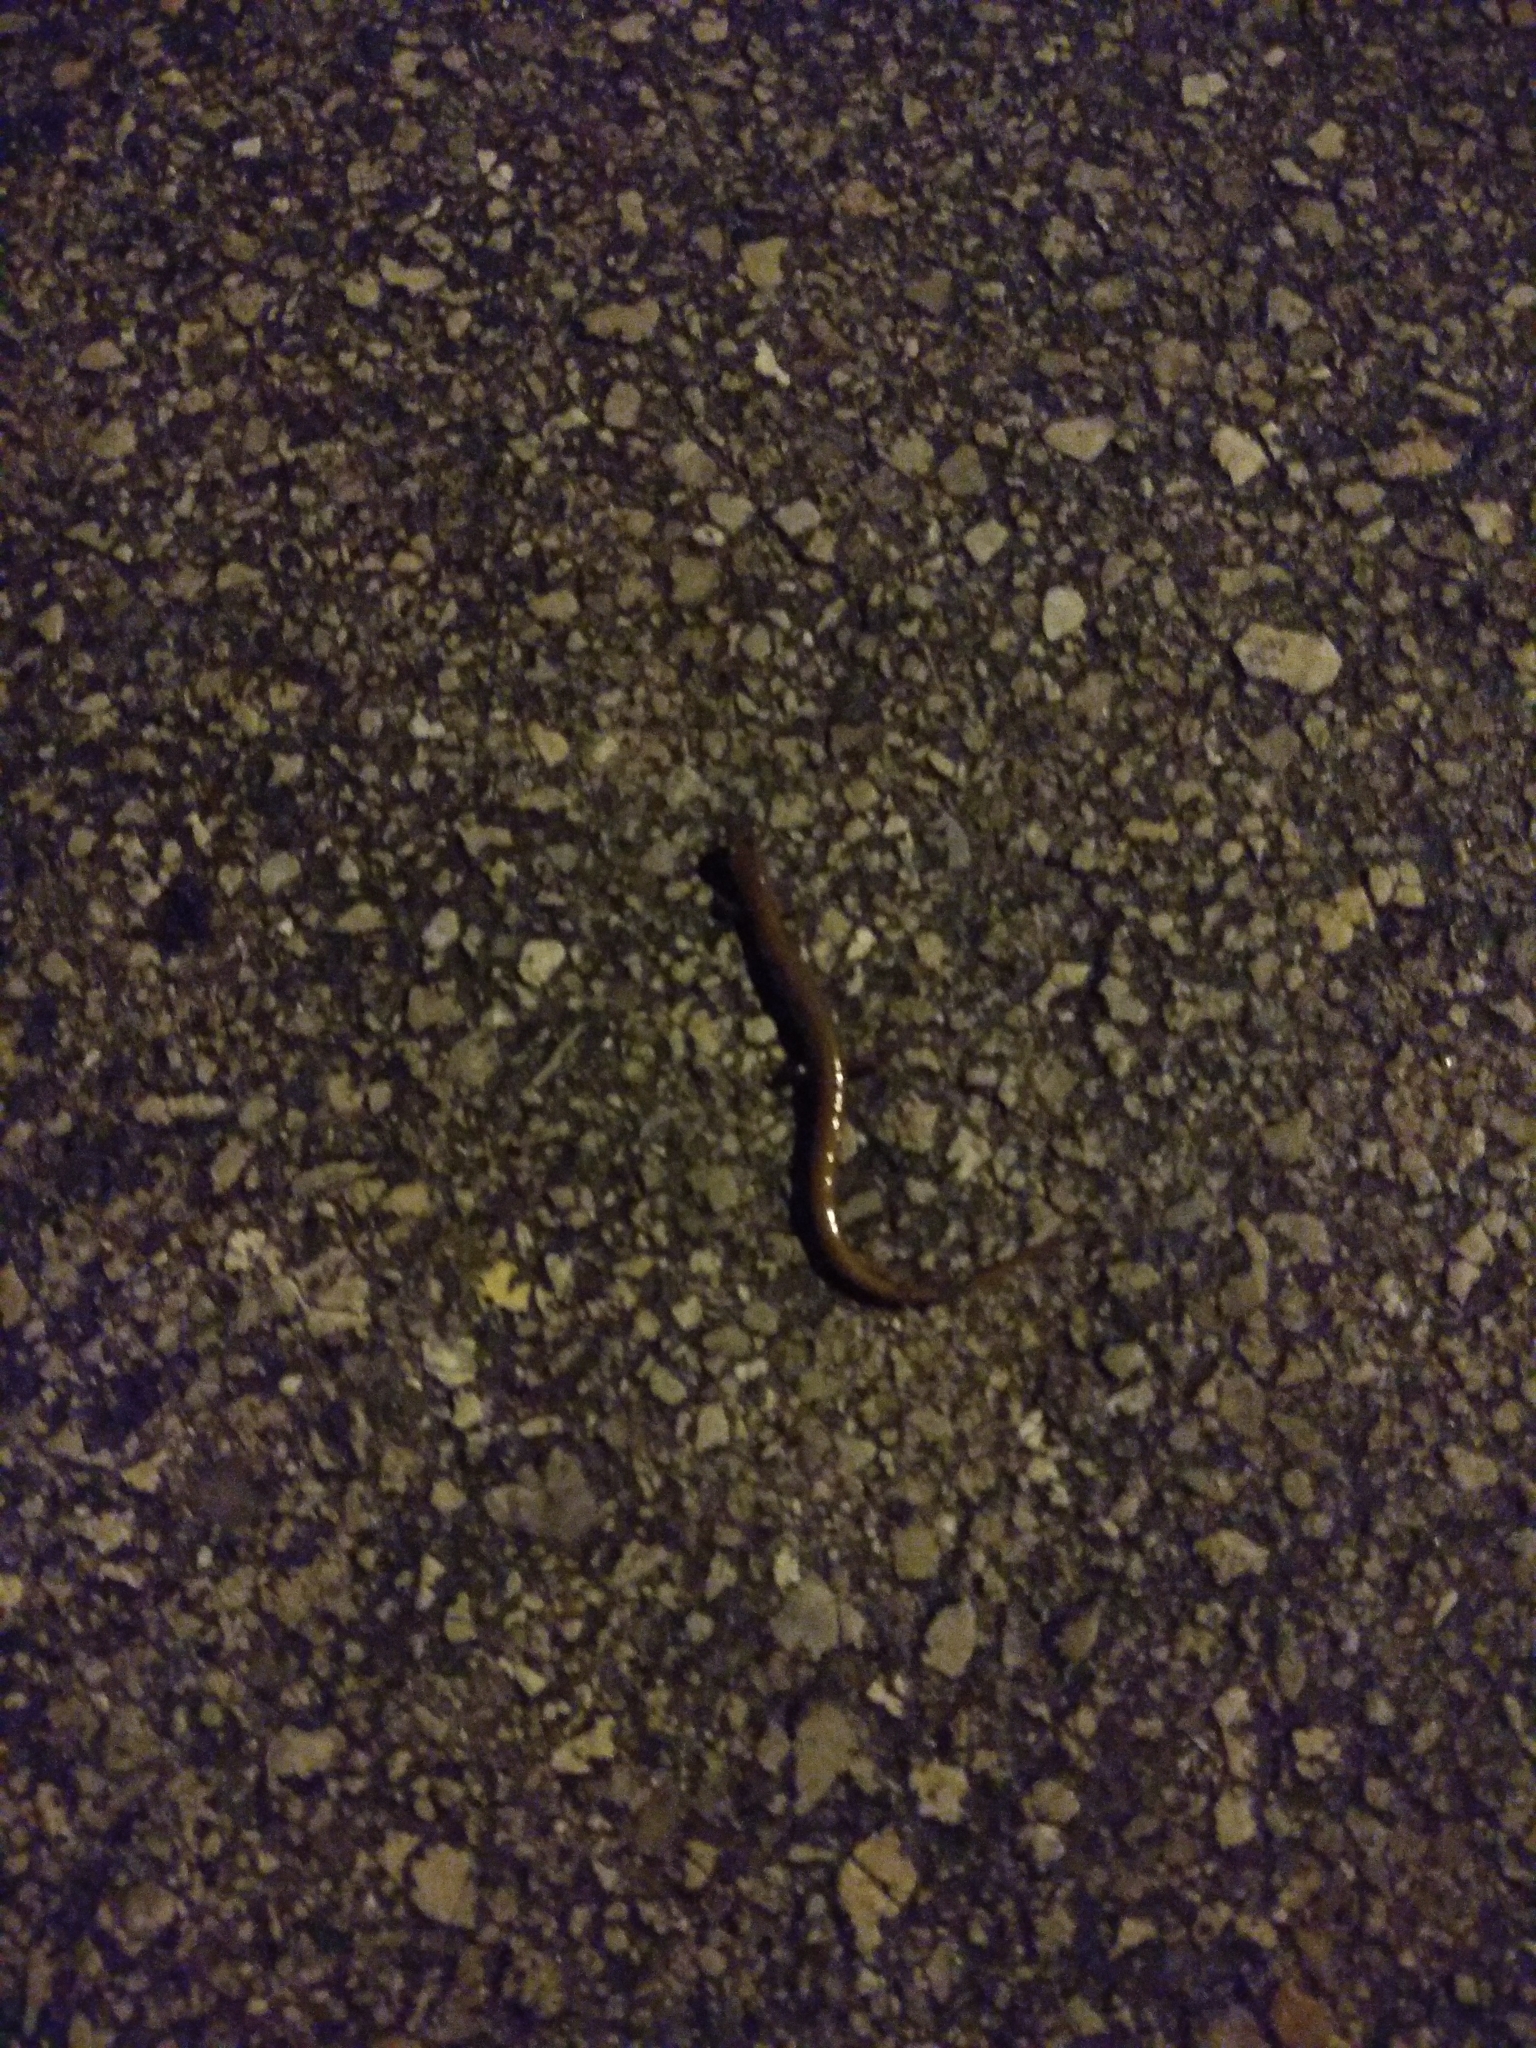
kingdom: Animalia
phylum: Chordata
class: Amphibia
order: Caudata
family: Plethodontidae
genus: Eurycea
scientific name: Eurycea quadridigitata
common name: Dwarf salamander
